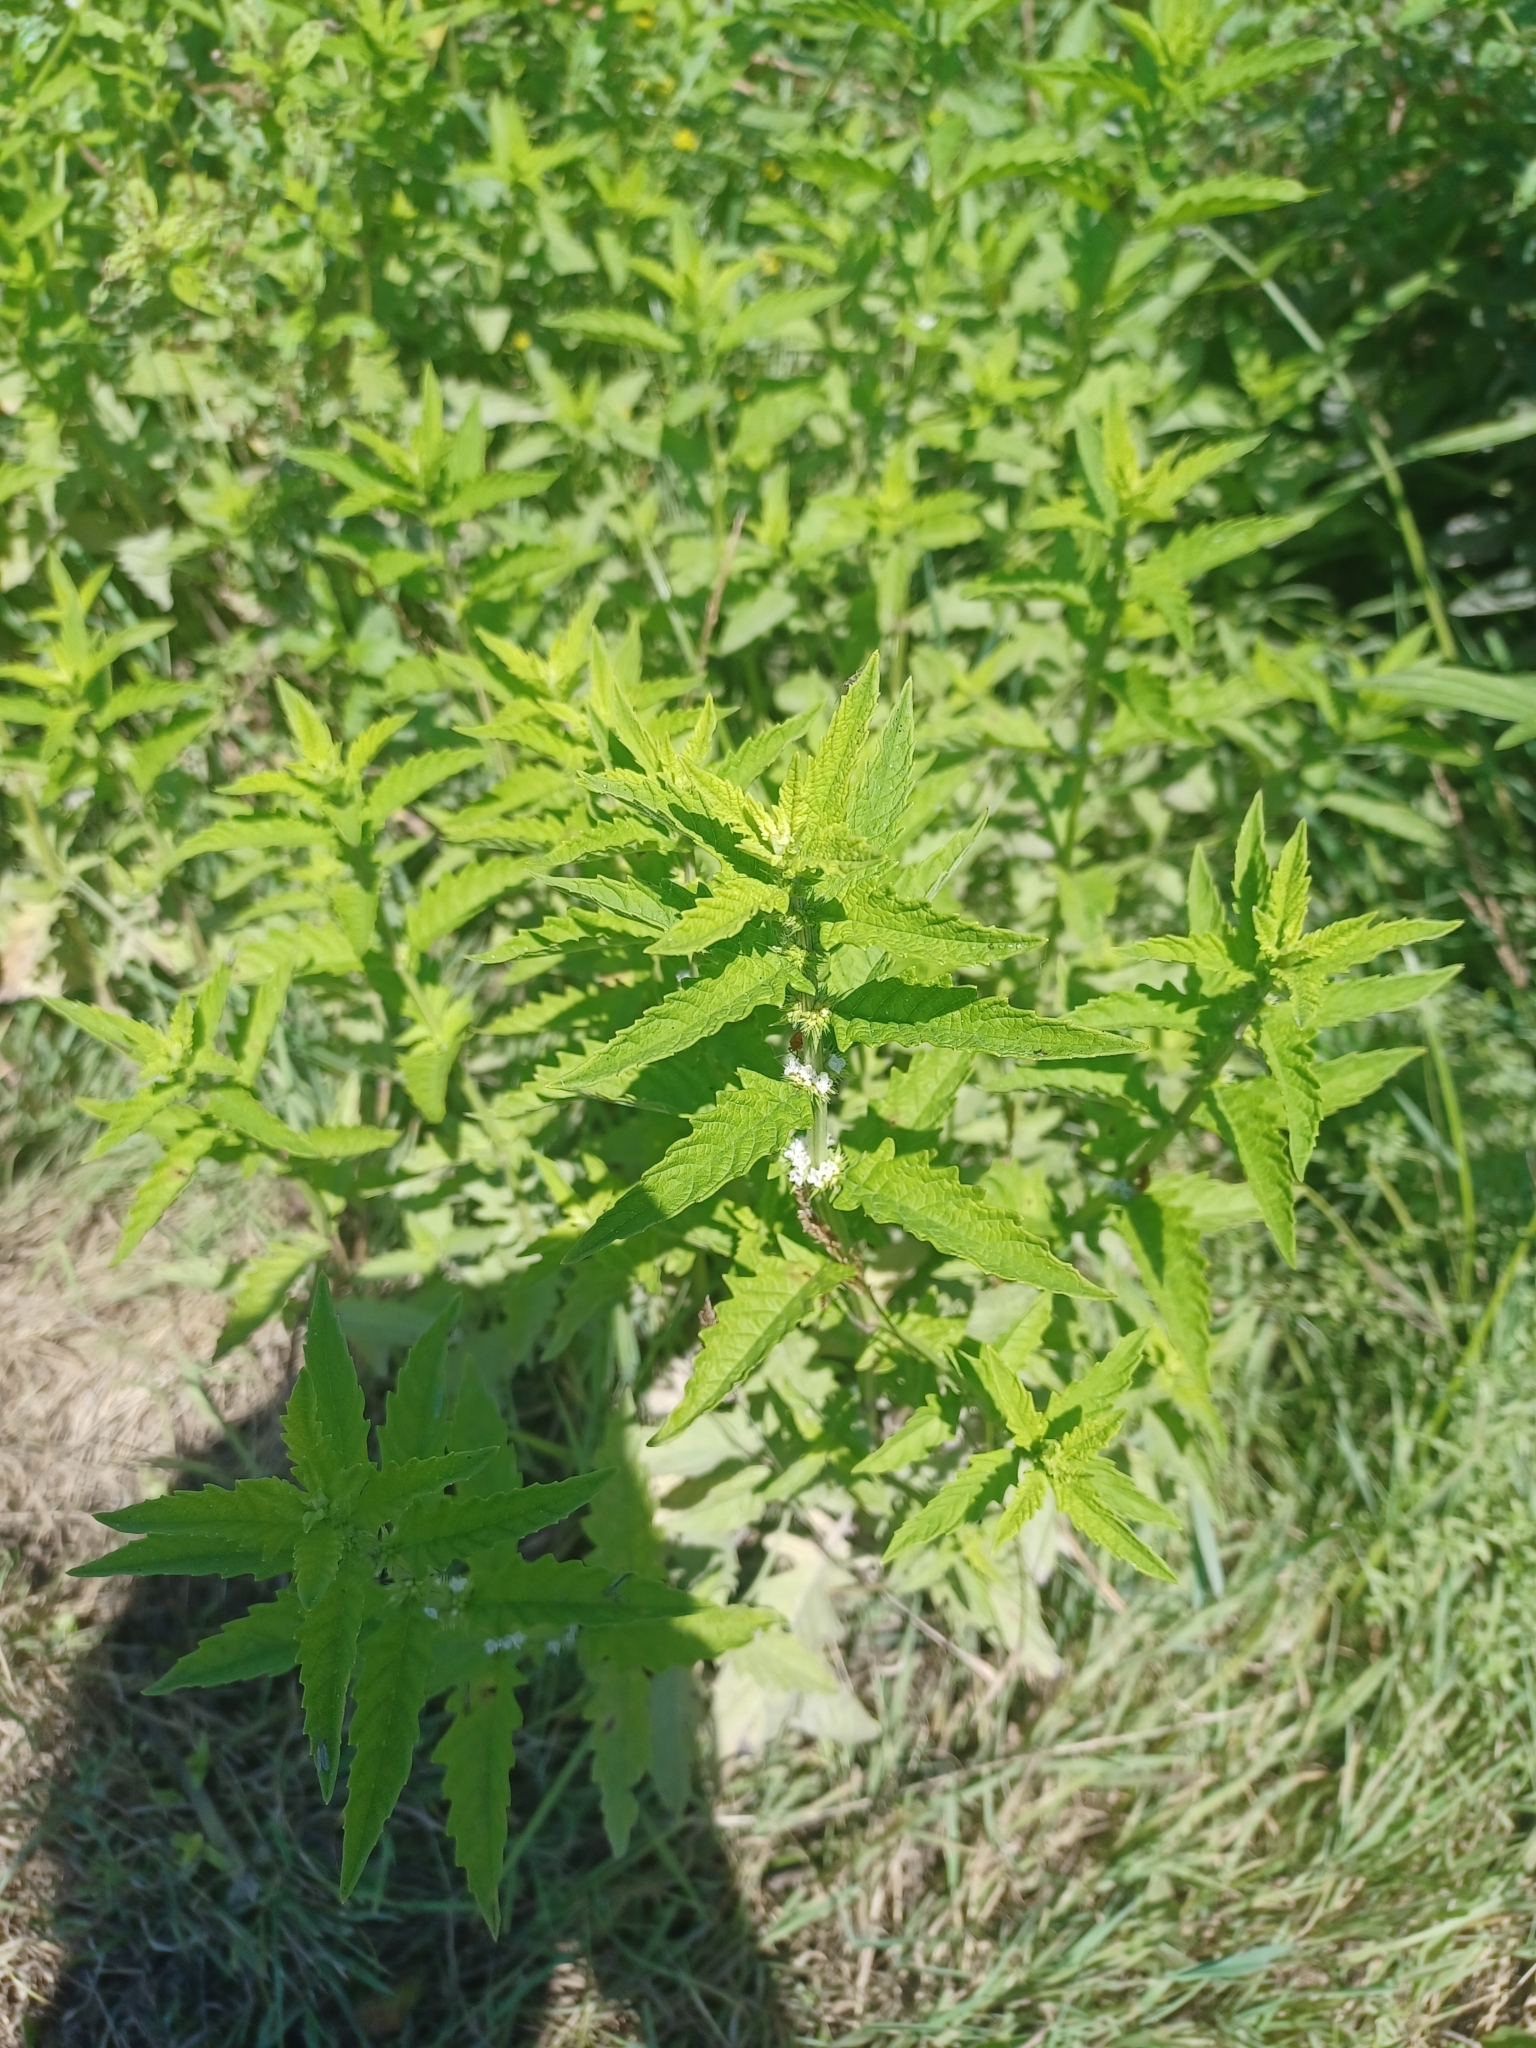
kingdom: Plantae
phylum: Tracheophyta
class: Magnoliopsida
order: Lamiales
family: Lamiaceae
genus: Lycopus
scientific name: Lycopus europaeus
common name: European bugleweed
